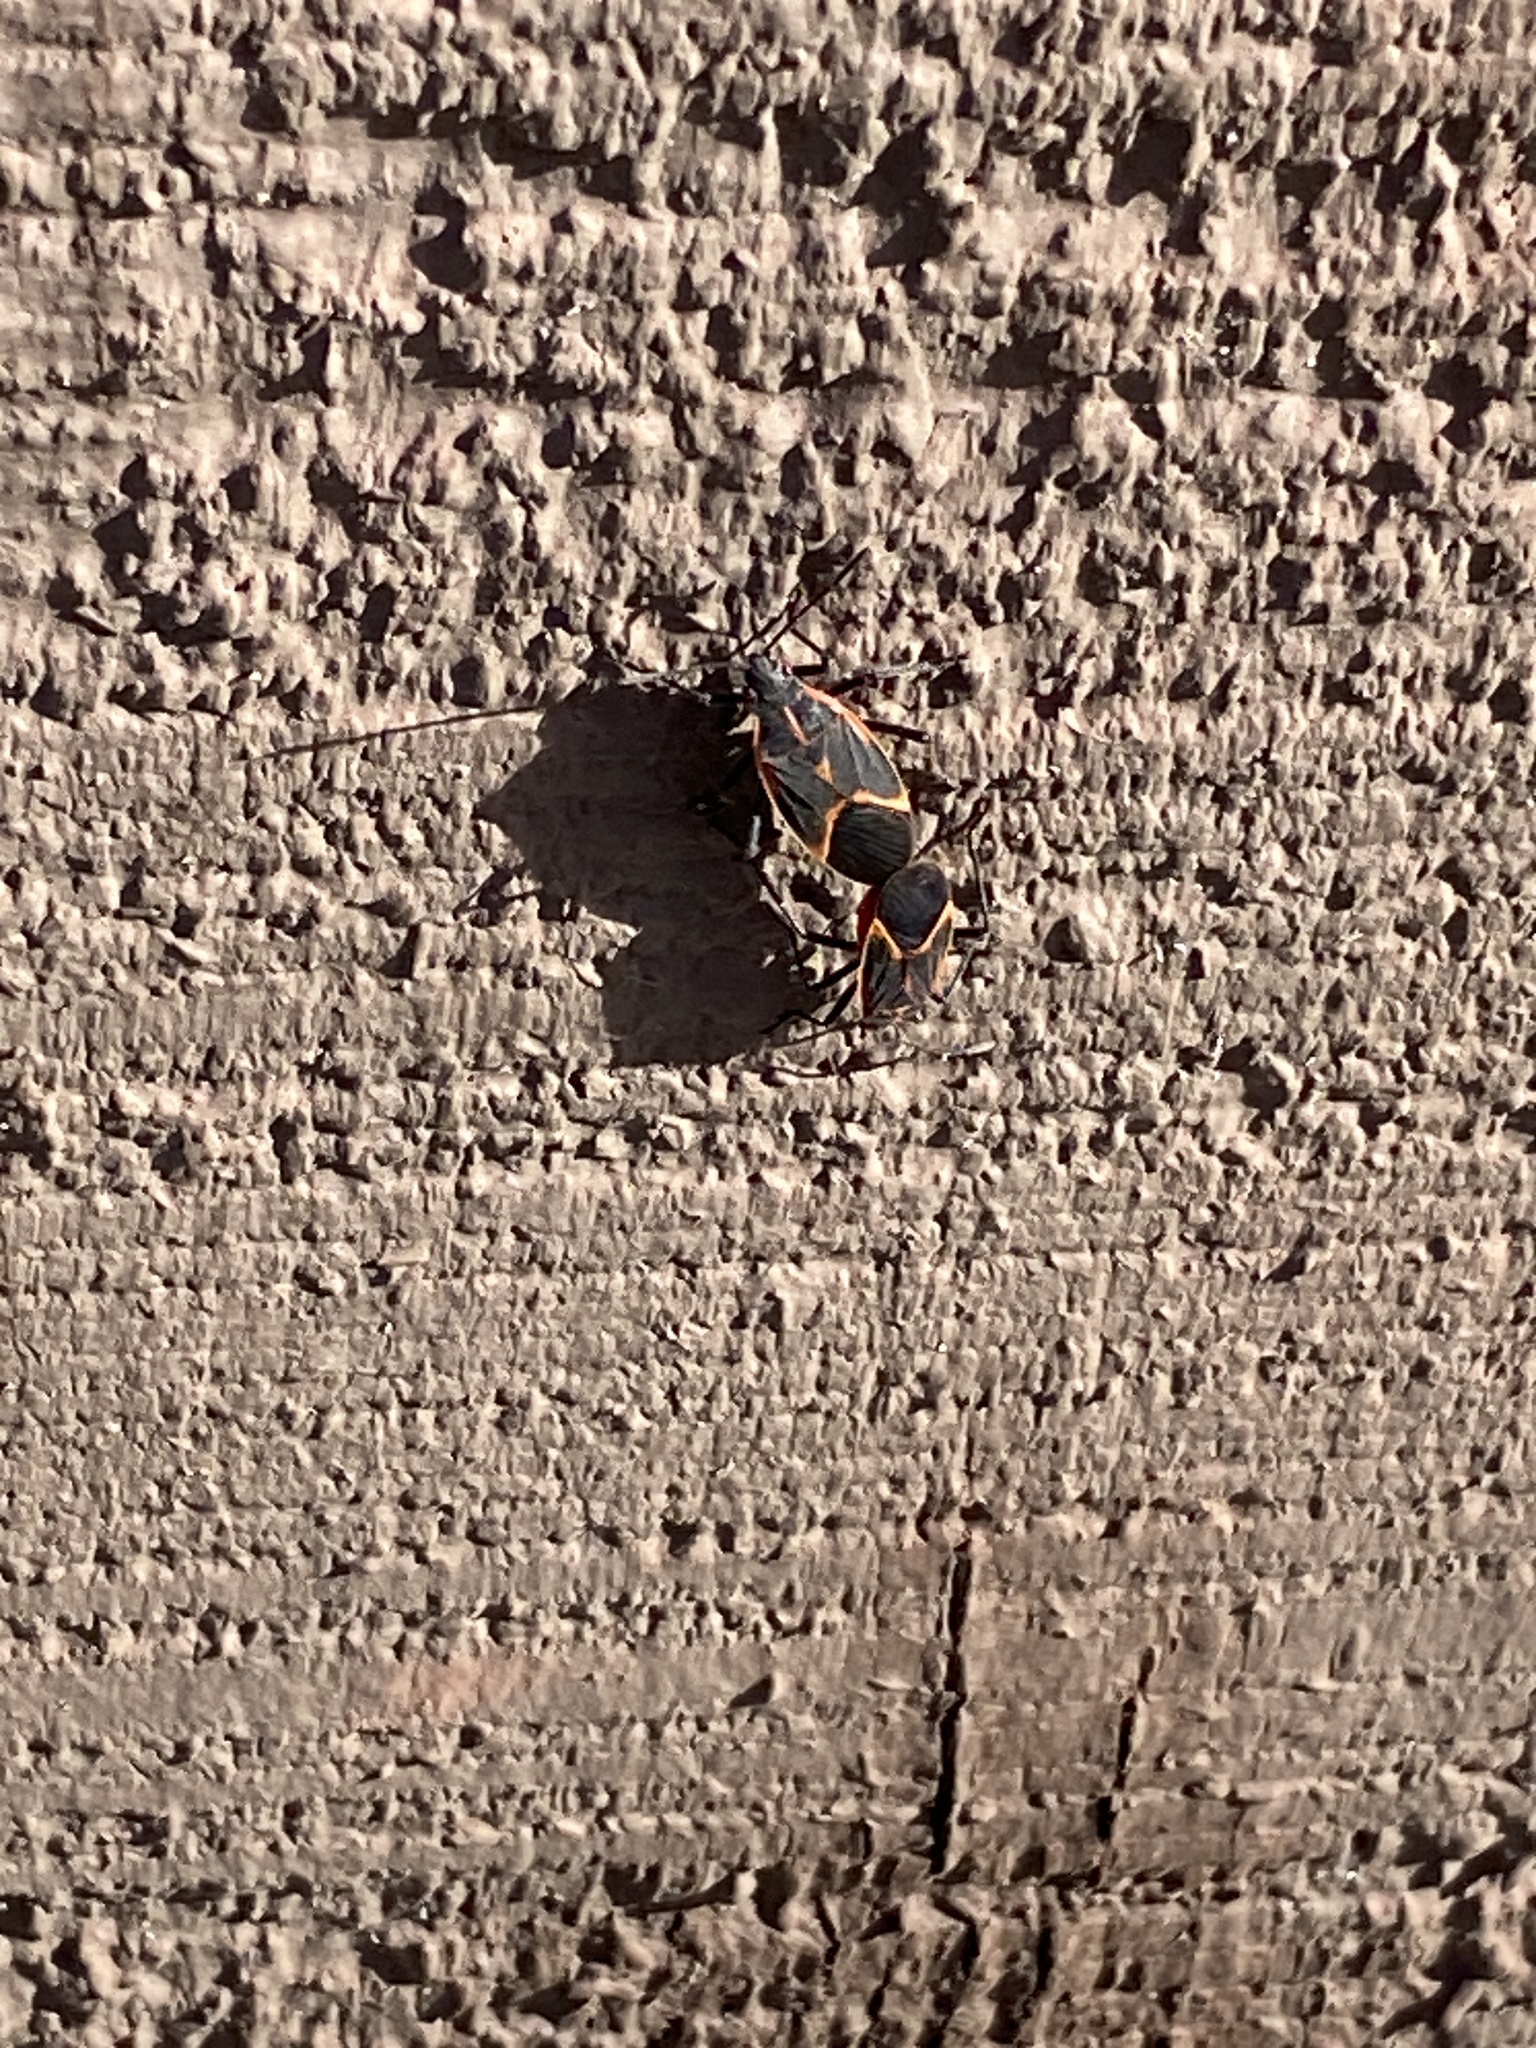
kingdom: Animalia
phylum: Arthropoda
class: Insecta
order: Hemiptera
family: Rhopalidae
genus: Boisea
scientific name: Boisea trivittata
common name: Boxelder bug
